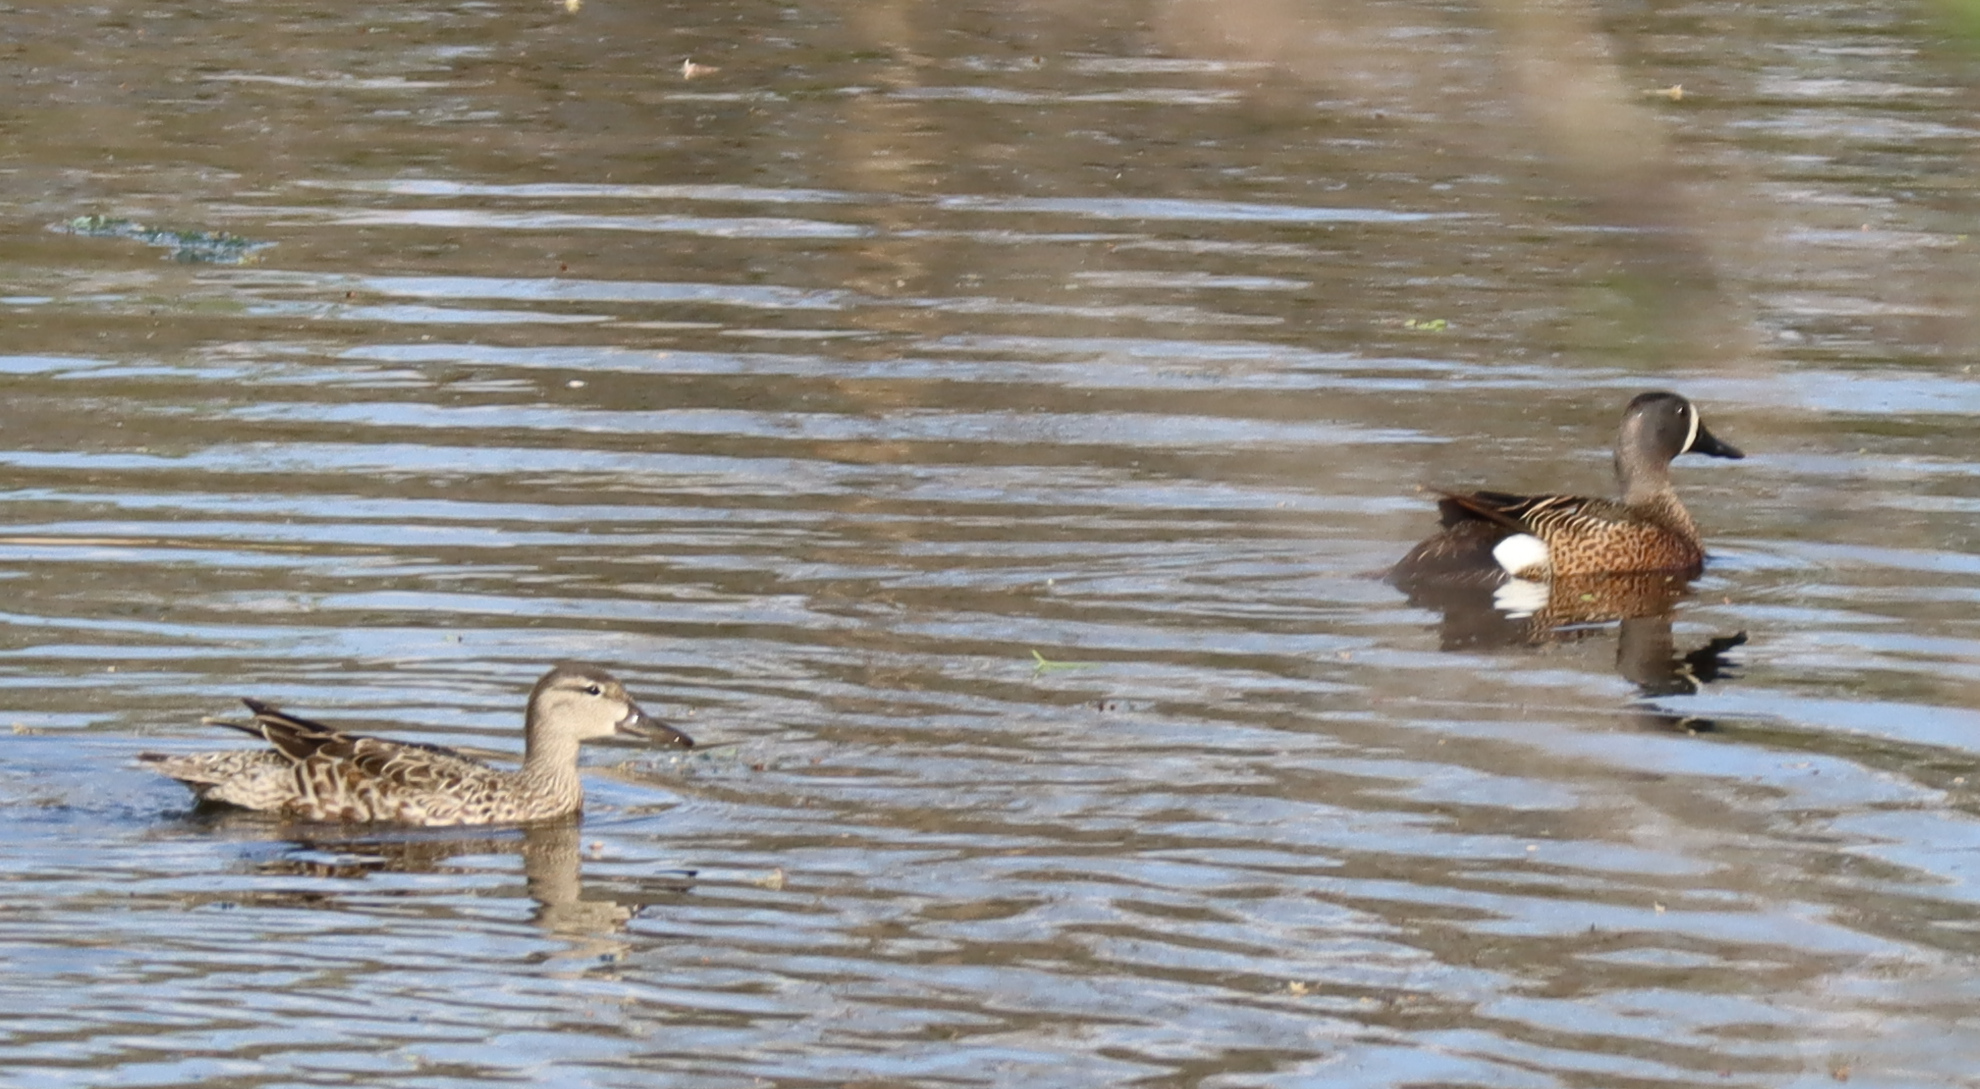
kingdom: Animalia
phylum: Chordata
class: Aves
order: Anseriformes
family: Anatidae
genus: Spatula
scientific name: Spatula discors
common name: Blue-winged teal
